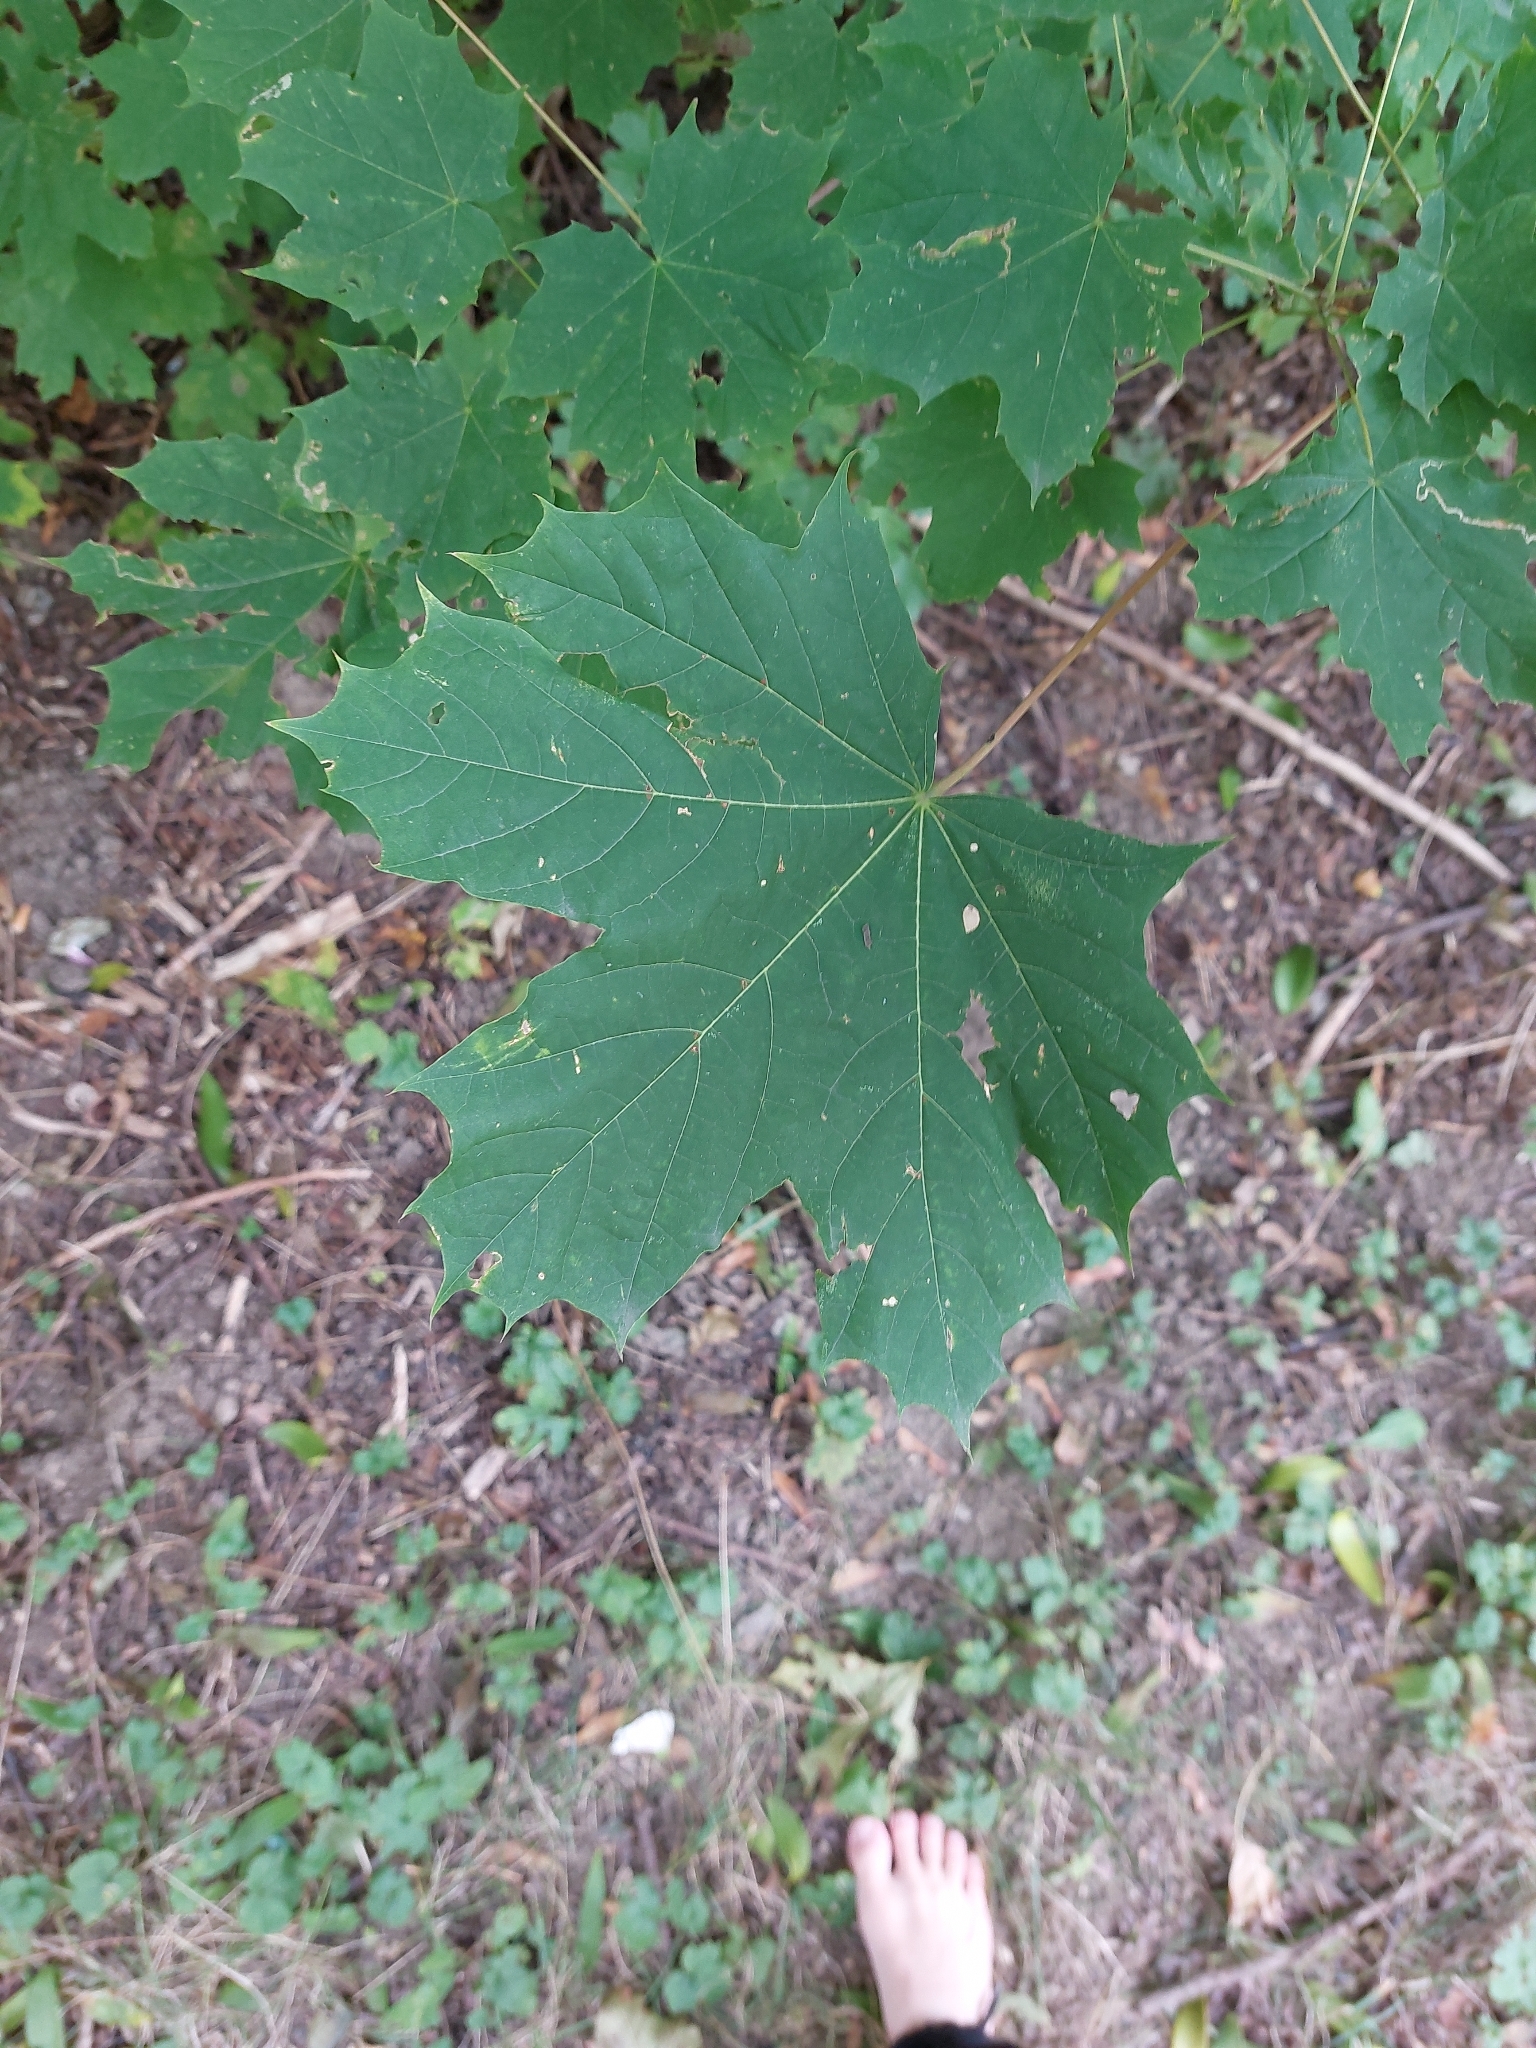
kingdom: Plantae
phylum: Tracheophyta
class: Magnoliopsida
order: Sapindales
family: Sapindaceae
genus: Acer
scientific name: Acer platanoides
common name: Norway maple
